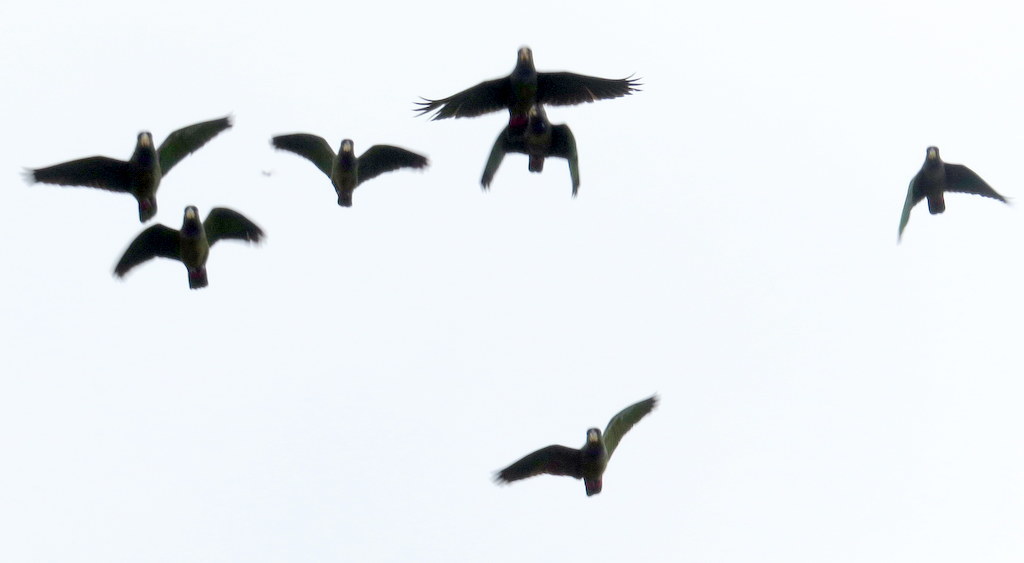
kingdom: Animalia
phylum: Chordata
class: Aves
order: Psittaciformes
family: Psittacidae
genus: Pionus
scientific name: Pionus maximiliani
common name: Scaly-headed parrot
